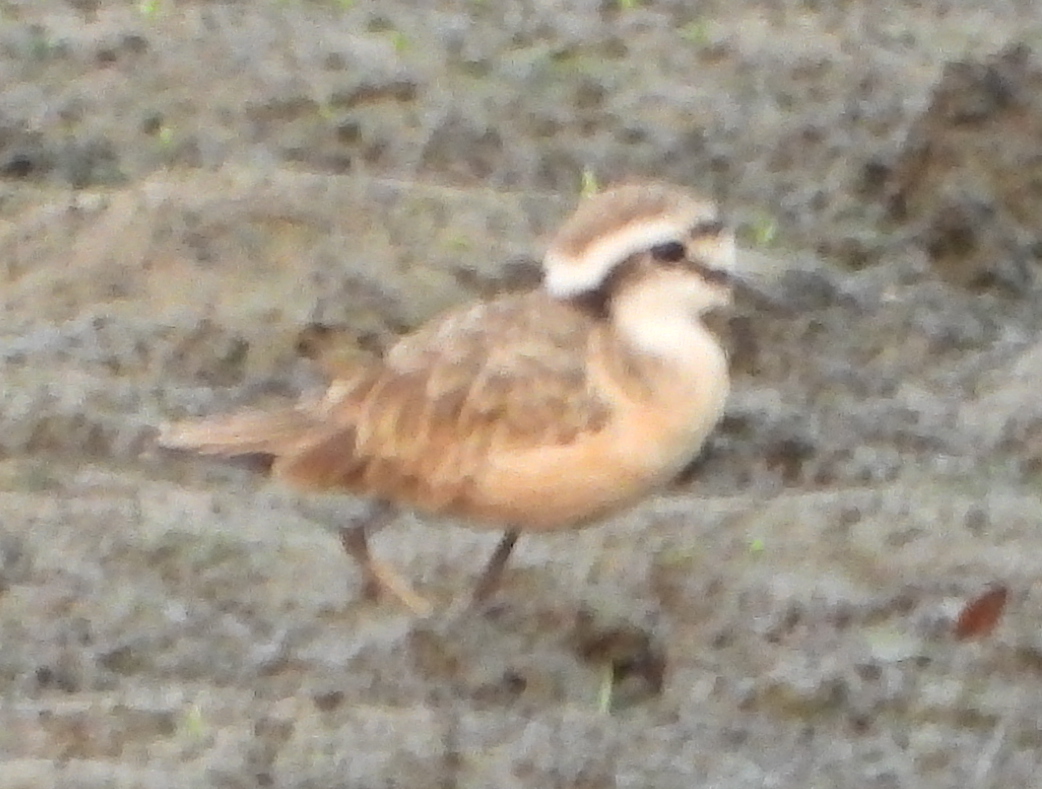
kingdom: Animalia
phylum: Chordata
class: Aves
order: Charadriiformes
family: Charadriidae
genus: Anarhynchus
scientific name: Anarhynchus
